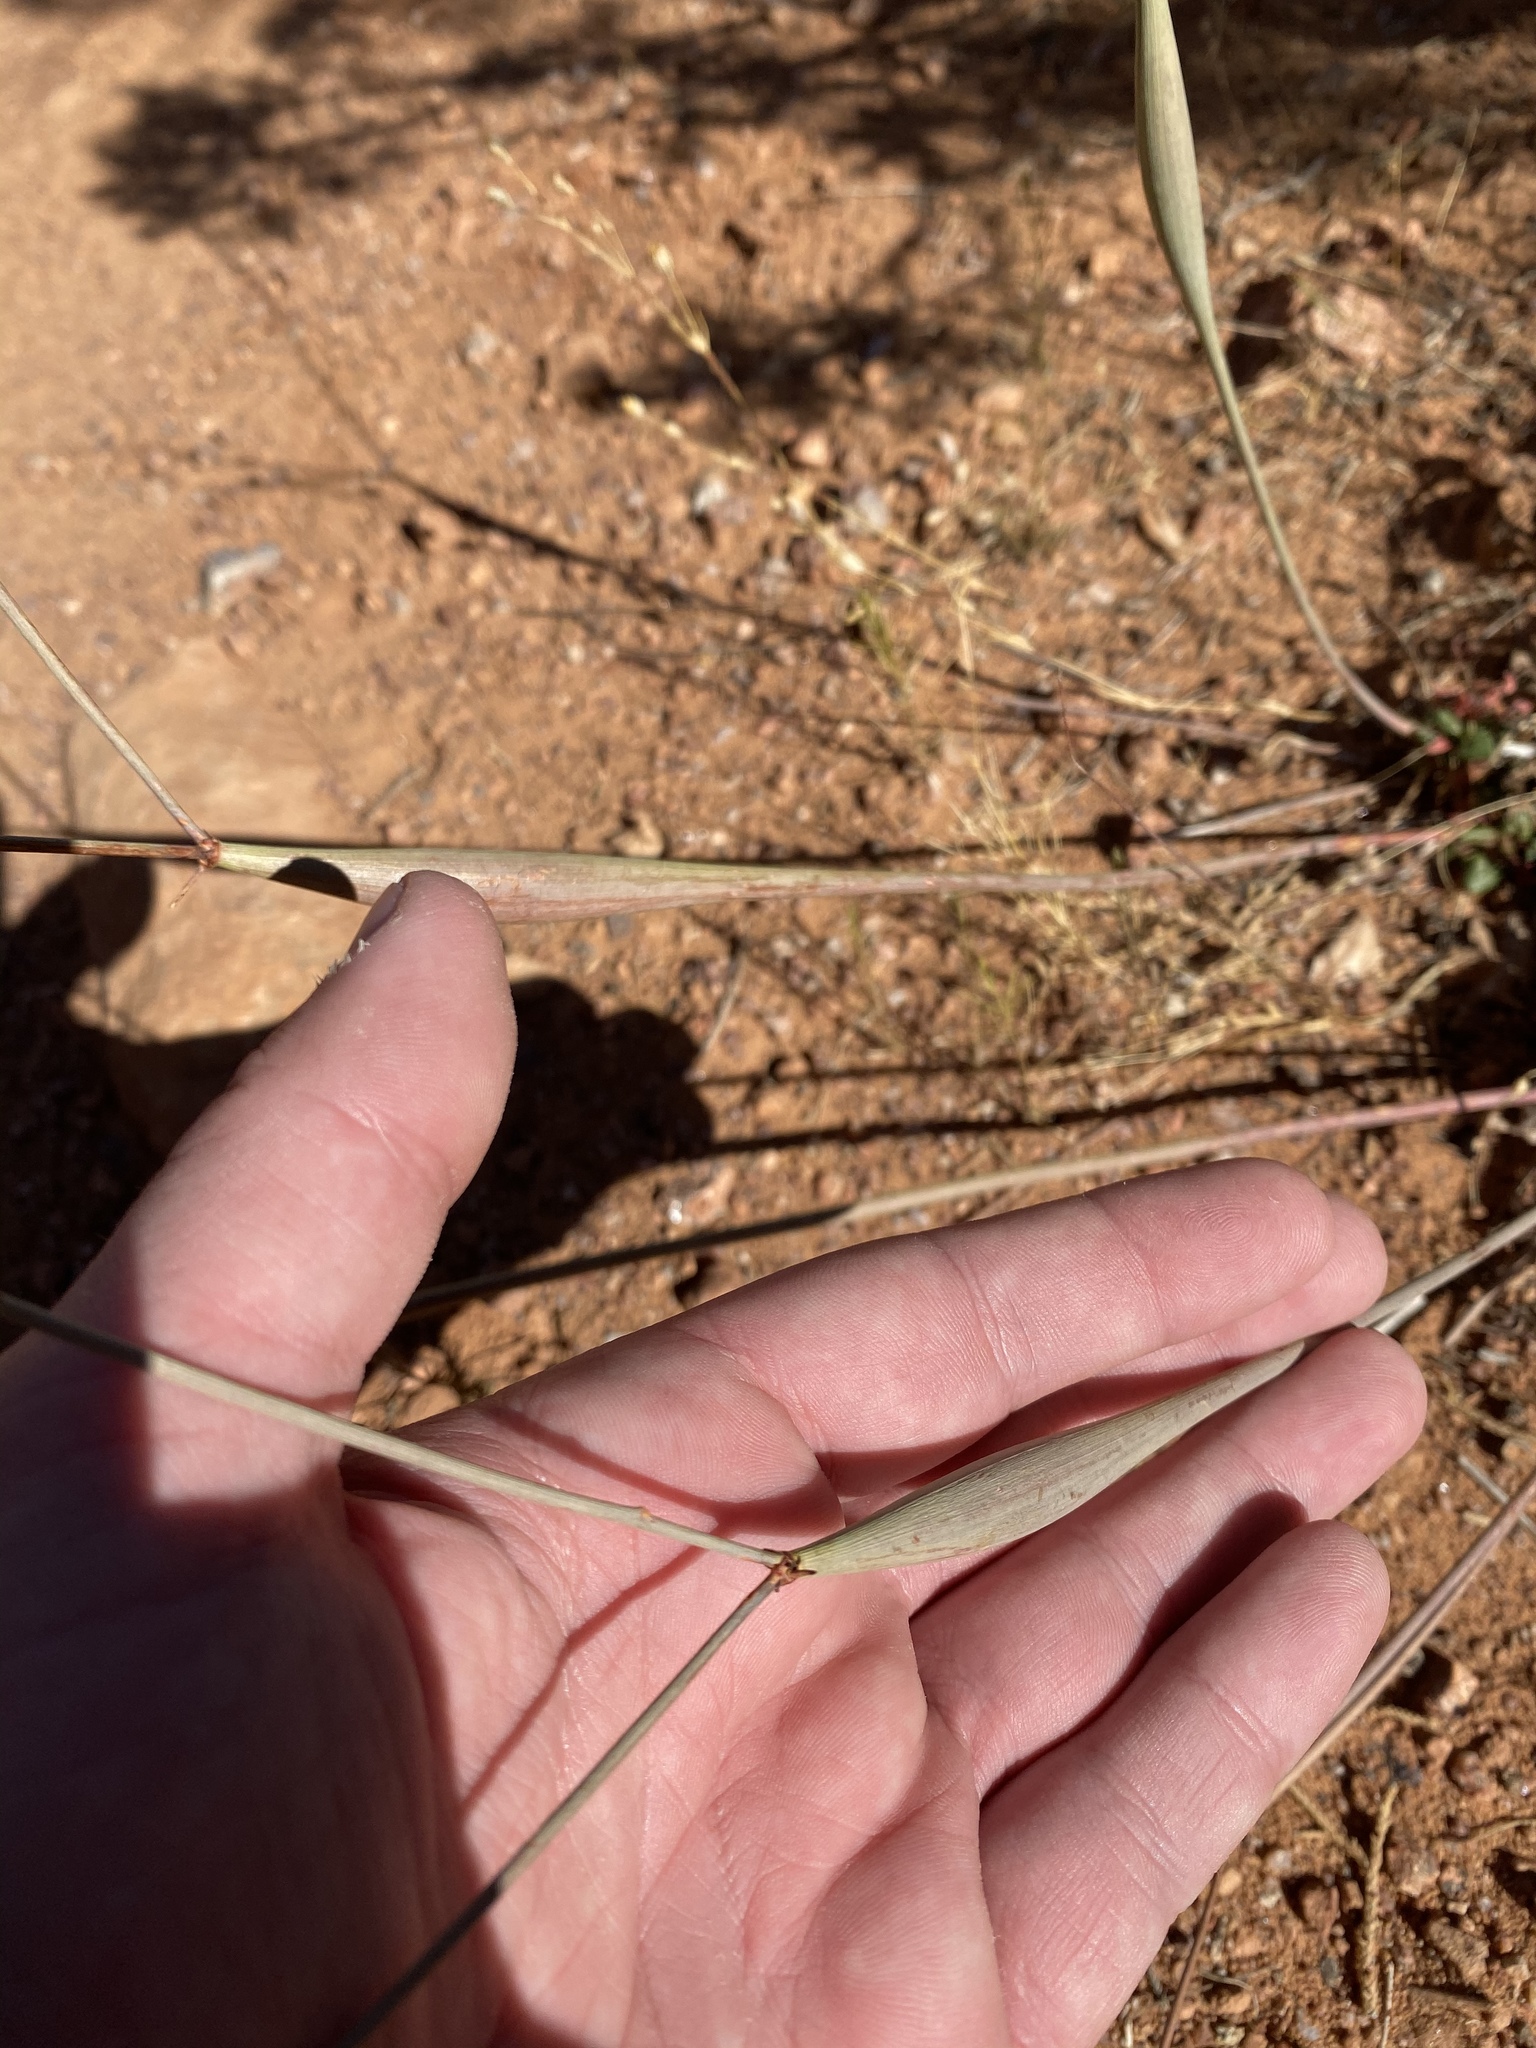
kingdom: Plantae
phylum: Tracheophyta
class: Magnoliopsida
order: Caryophyllales
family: Polygonaceae
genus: Eriogonum
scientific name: Eriogonum inflatum
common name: Desert trumpet
